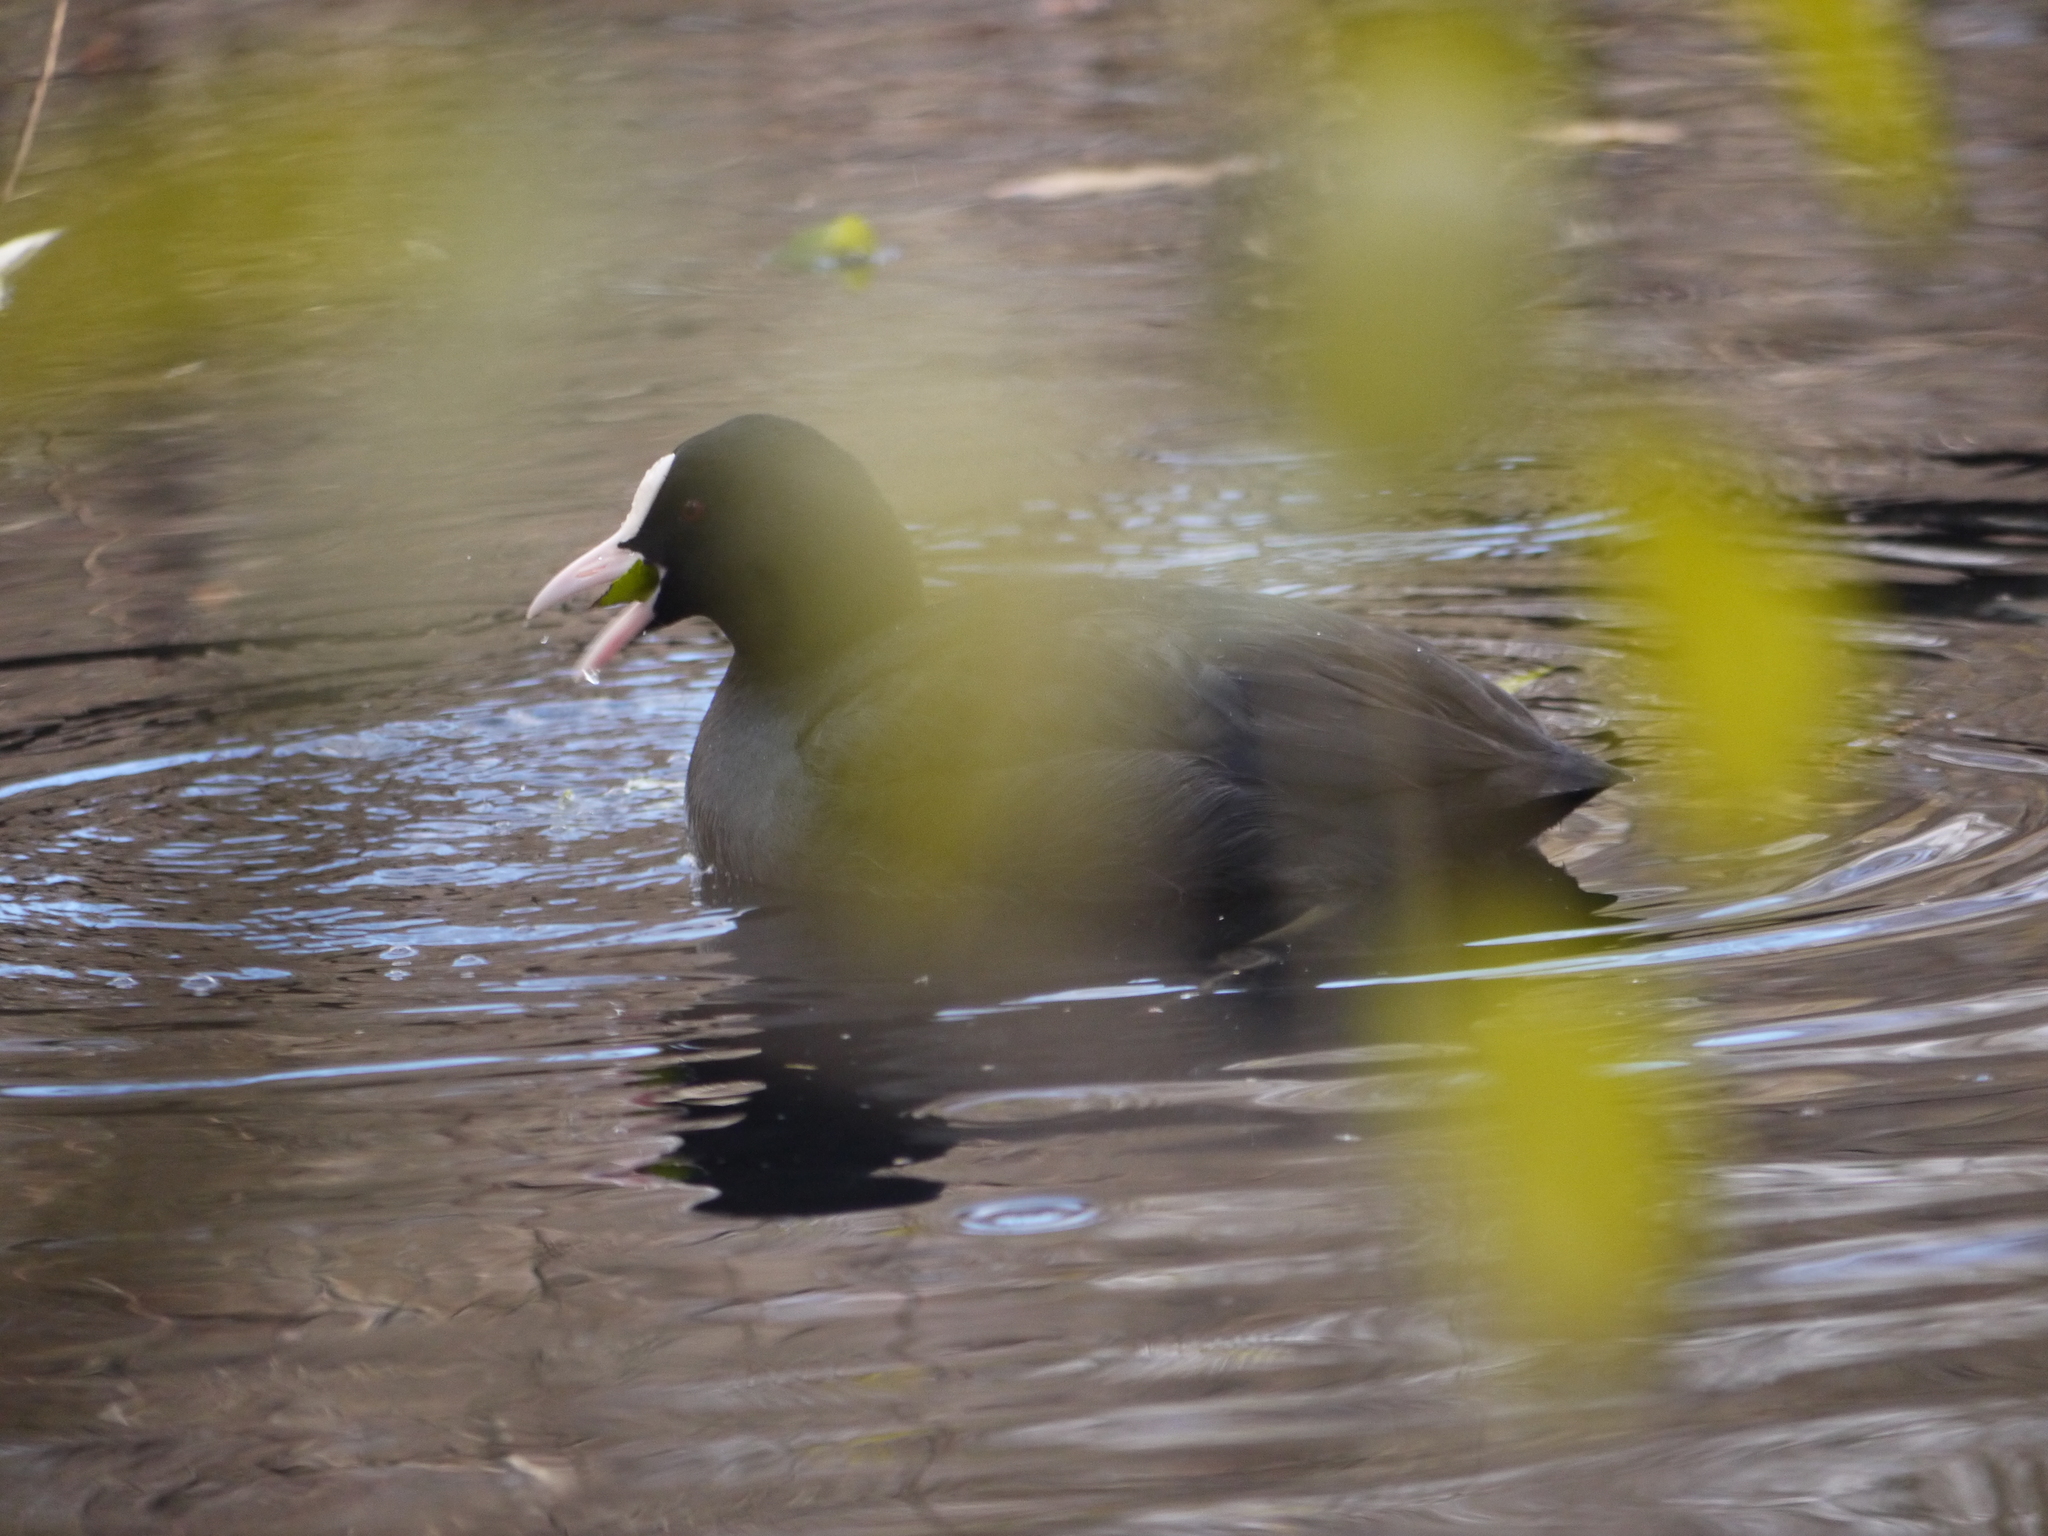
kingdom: Animalia
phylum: Chordata
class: Aves
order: Gruiformes
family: Rallidae
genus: Fulica
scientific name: Fulica atra
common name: Eurasian coot
